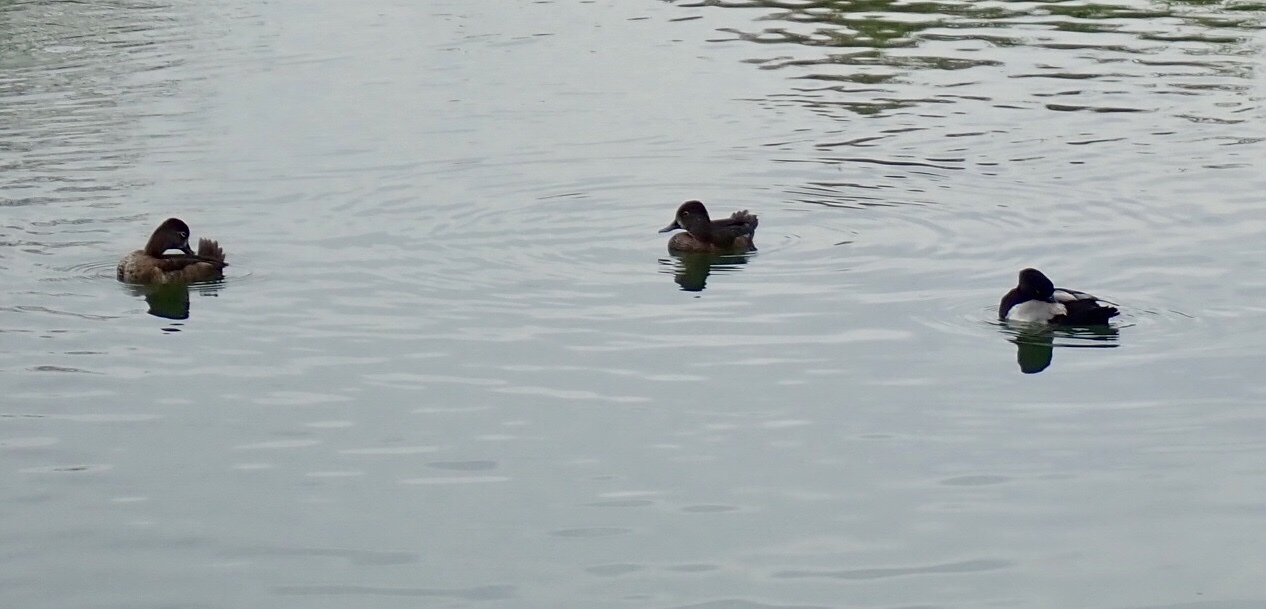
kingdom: Animalia
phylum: Chordata
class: Aves
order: Anseriformes
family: Anatidae
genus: Aythya
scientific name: Aythya collaris
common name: Ring-necked duck
